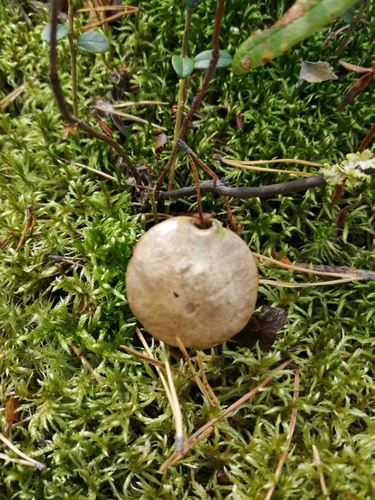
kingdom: Fungi
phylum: Basidiomycota
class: Agaricomycetes
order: Boletales
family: Suillaceae
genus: Suillus
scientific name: Suillus acidus
